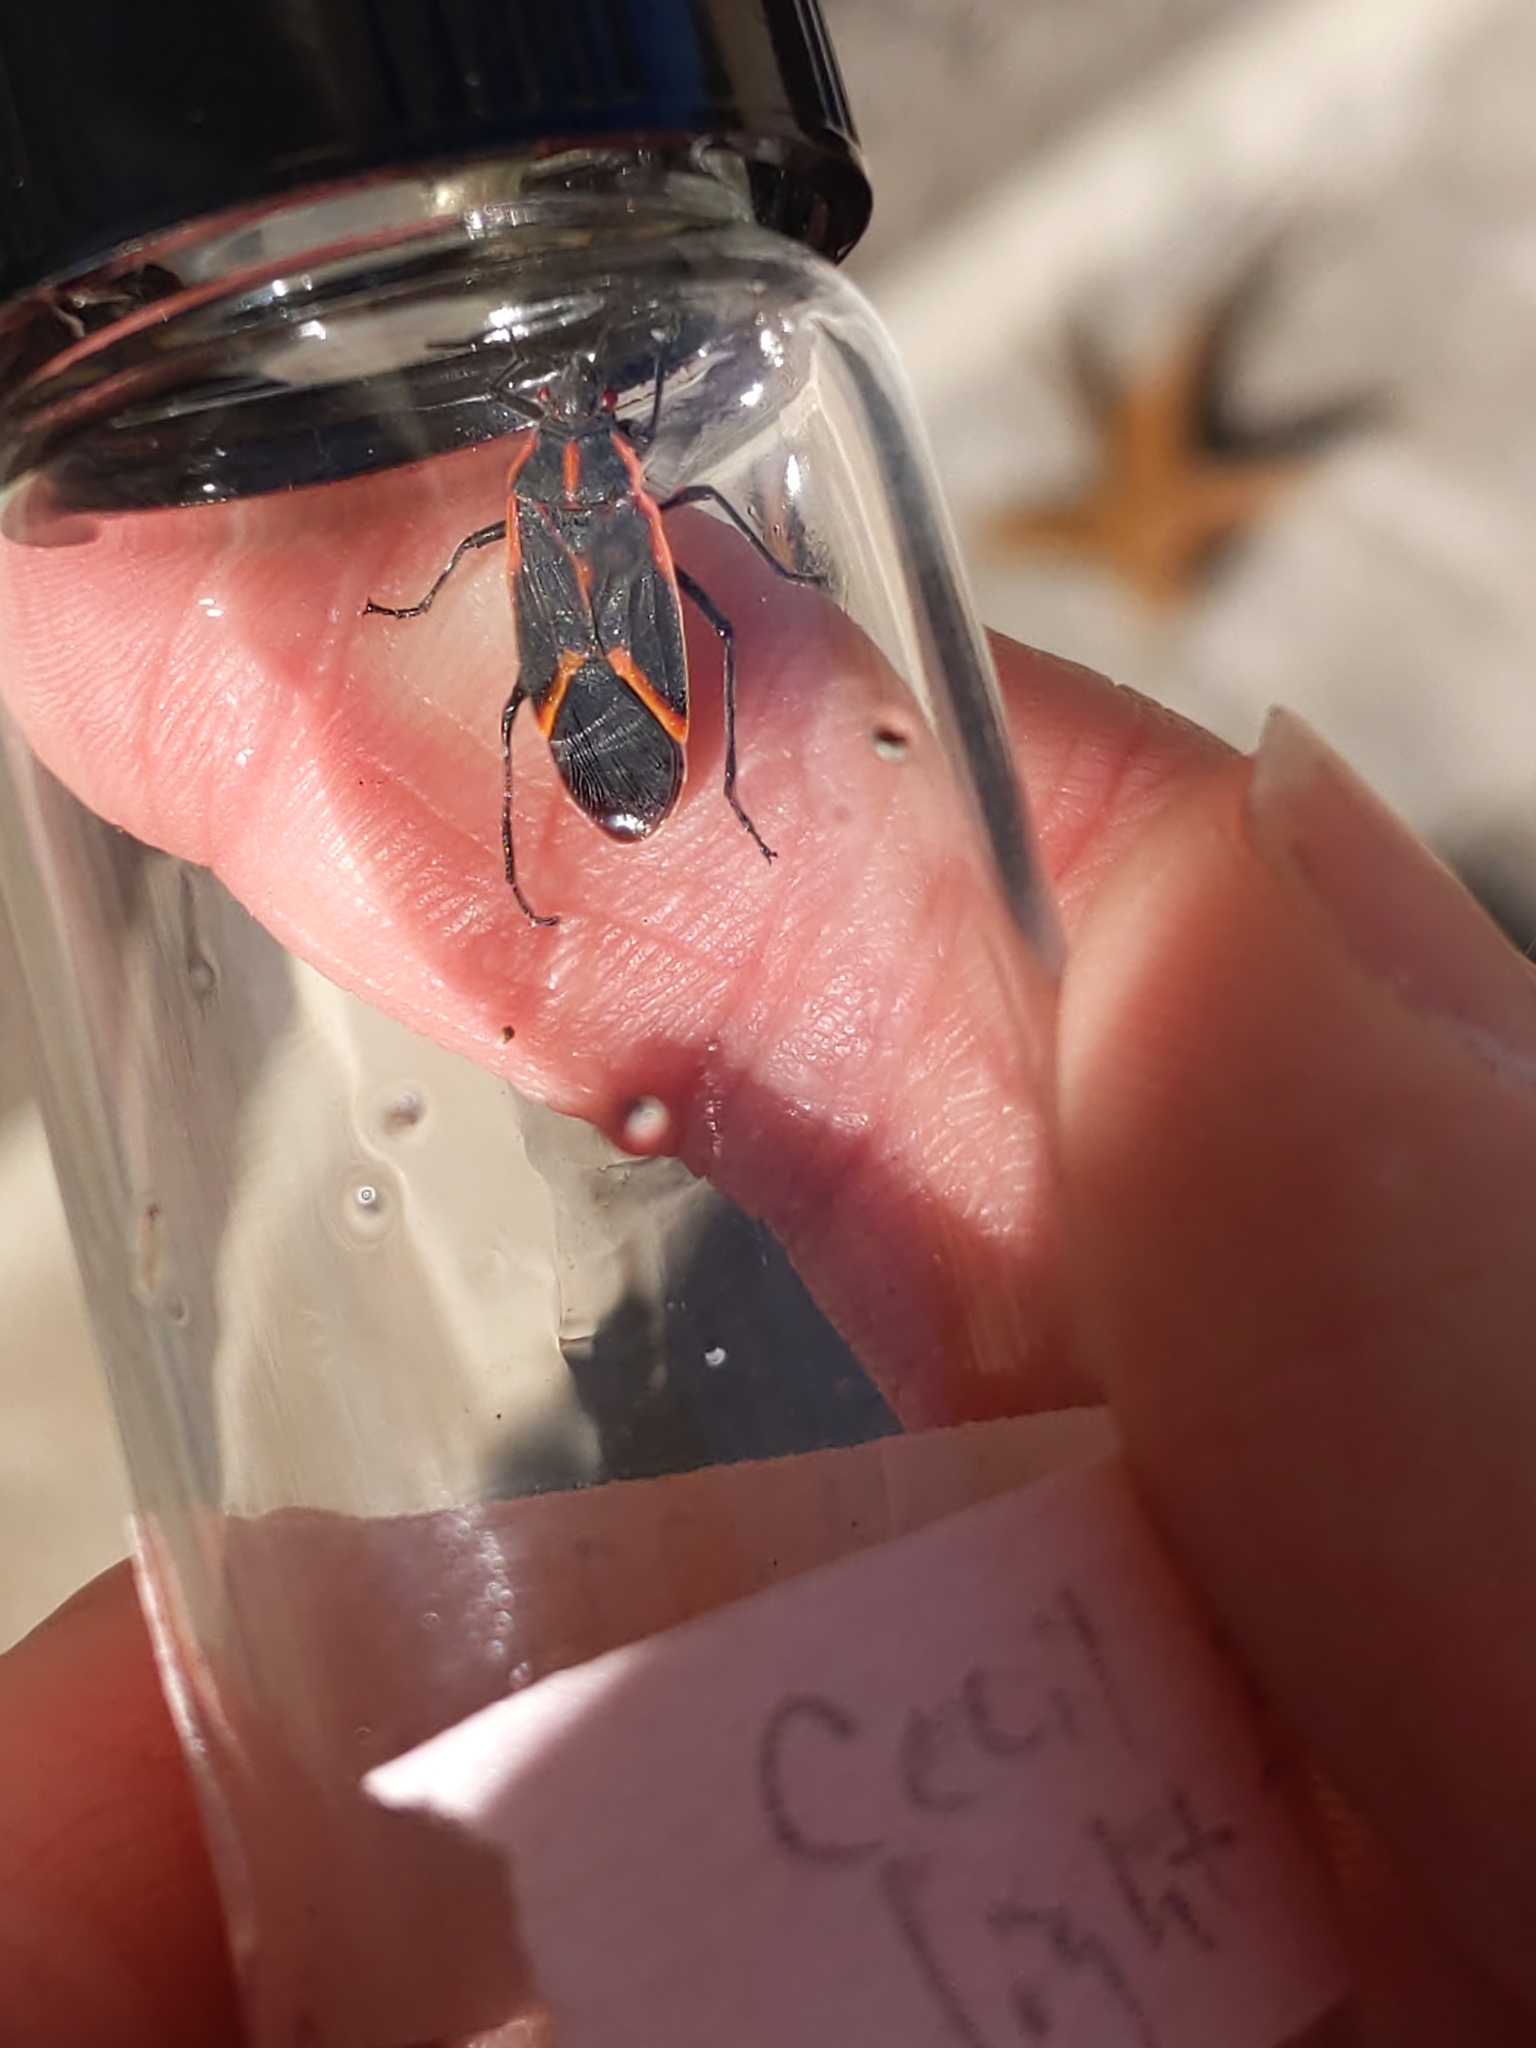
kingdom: Animalia
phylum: Arthropoda
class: Insecta
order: Hemiptera
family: Rhopalidae
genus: Boisea
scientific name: Boisea trivittata
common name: Boxelder bug
